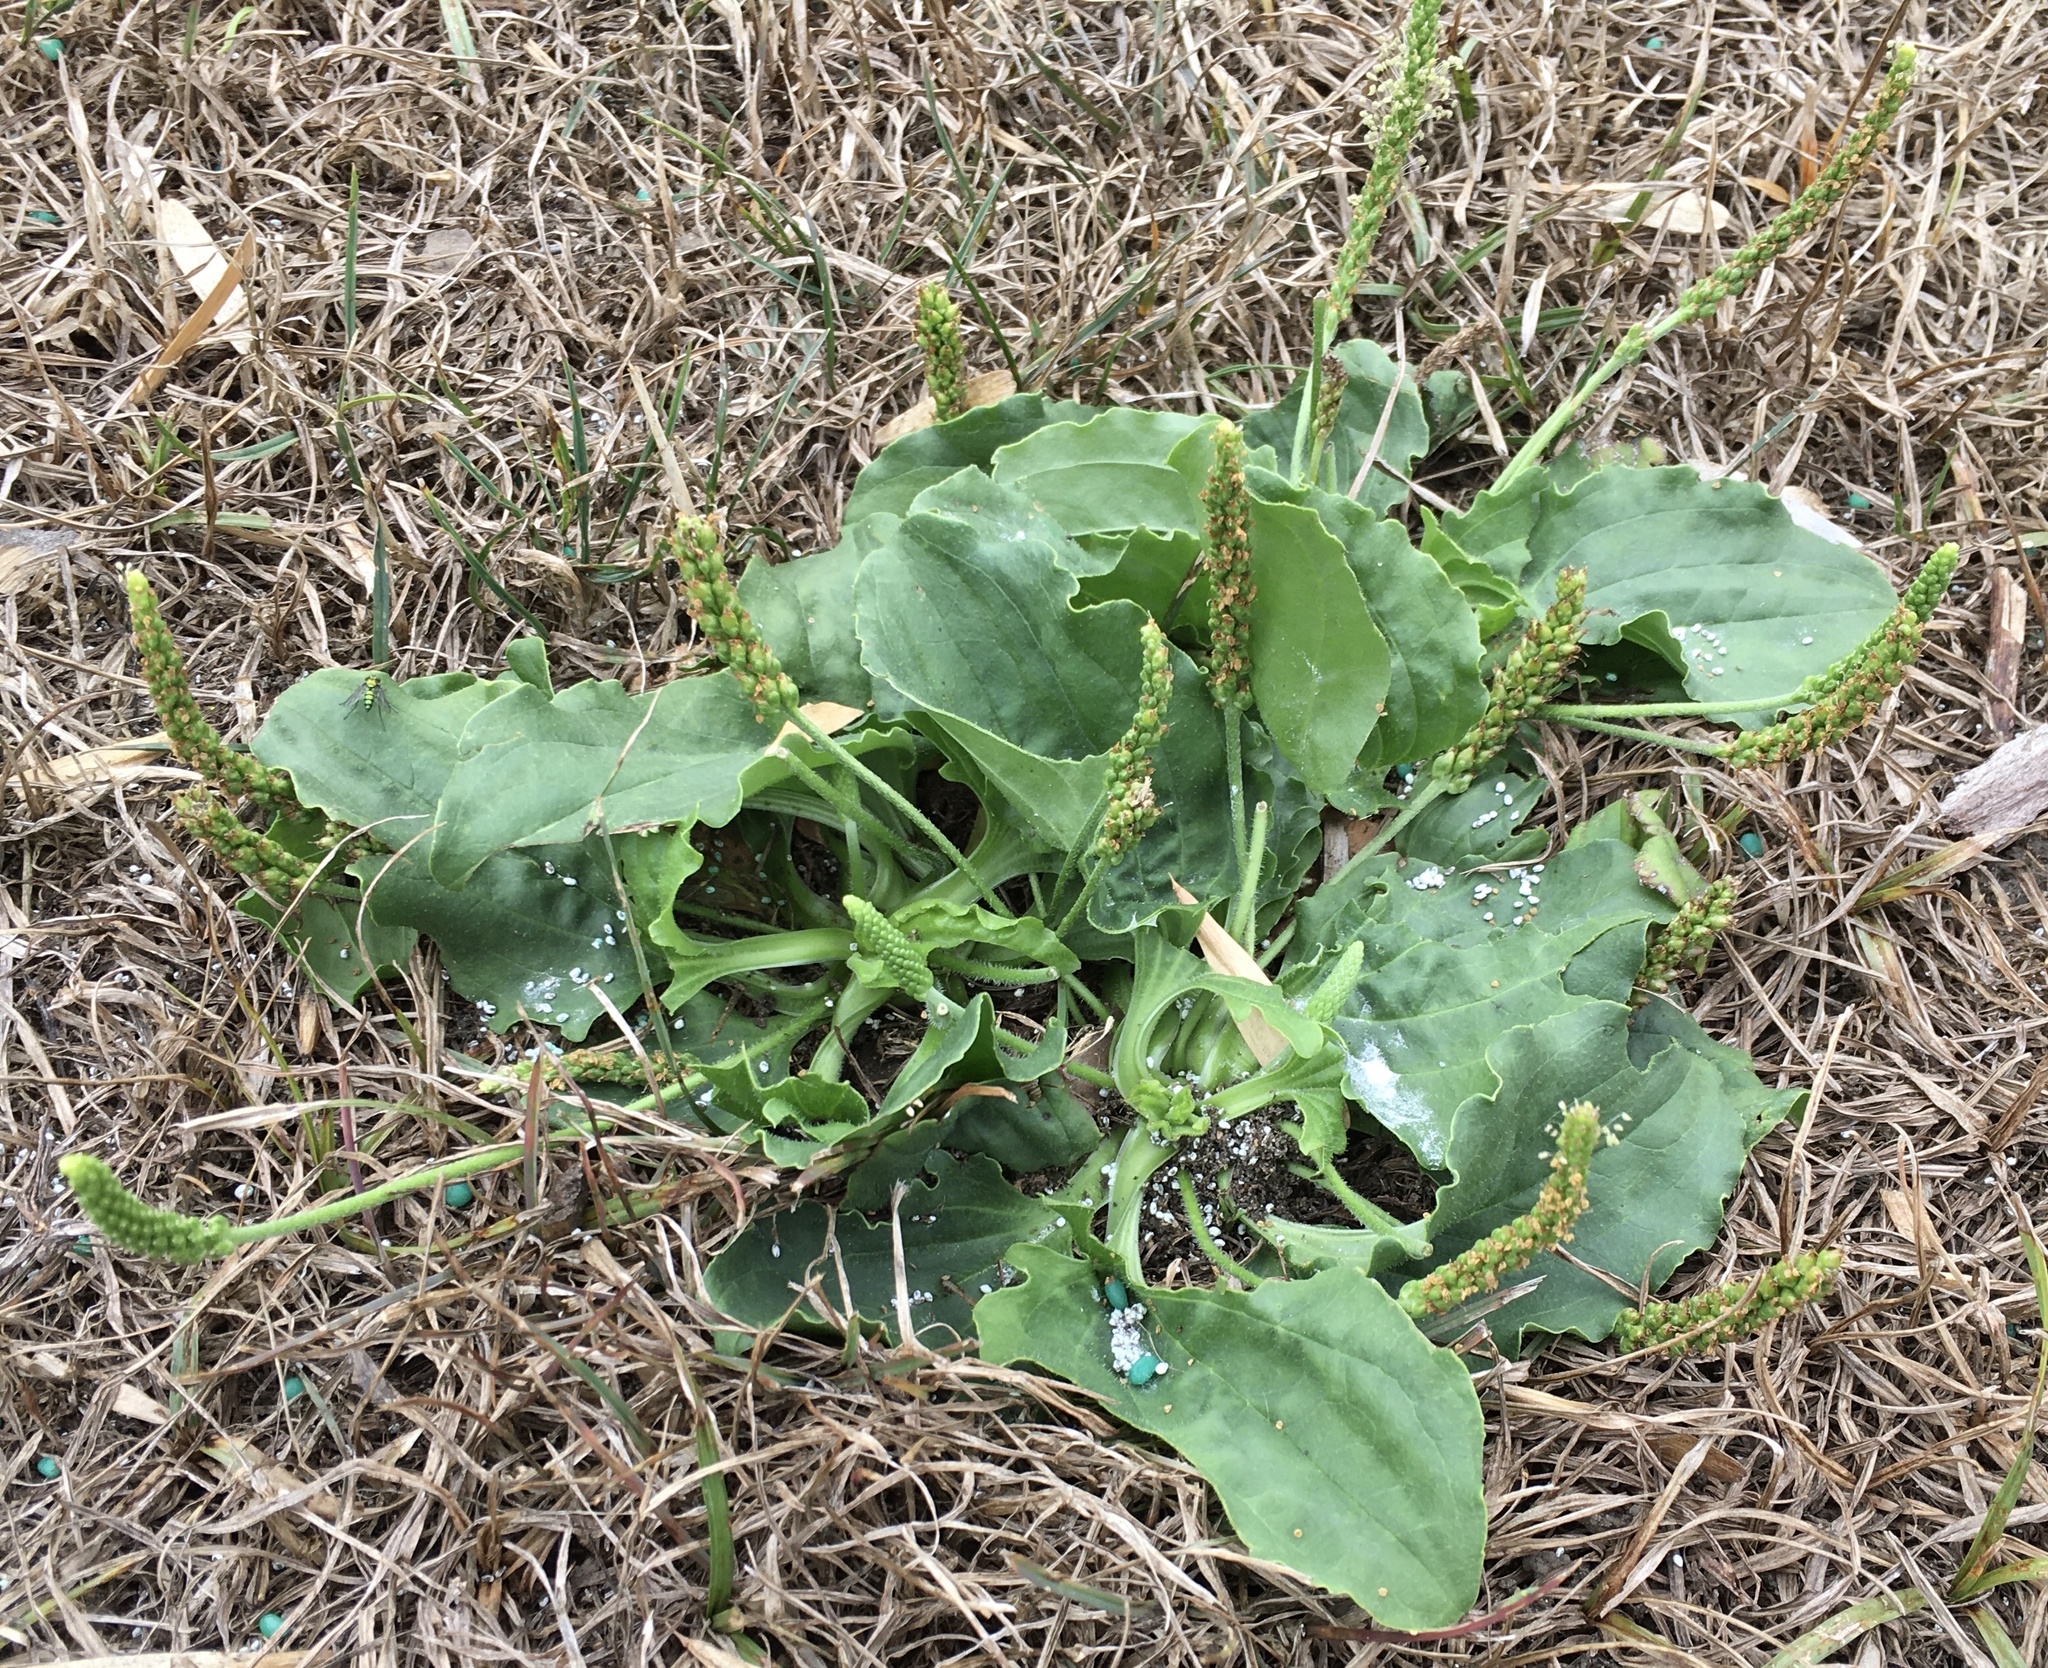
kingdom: Plantae
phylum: Tracheophyta
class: Magnoliopsida
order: Lamiales
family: Plantaginaceae
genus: Plantago
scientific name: Plantago major
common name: Common plantain
